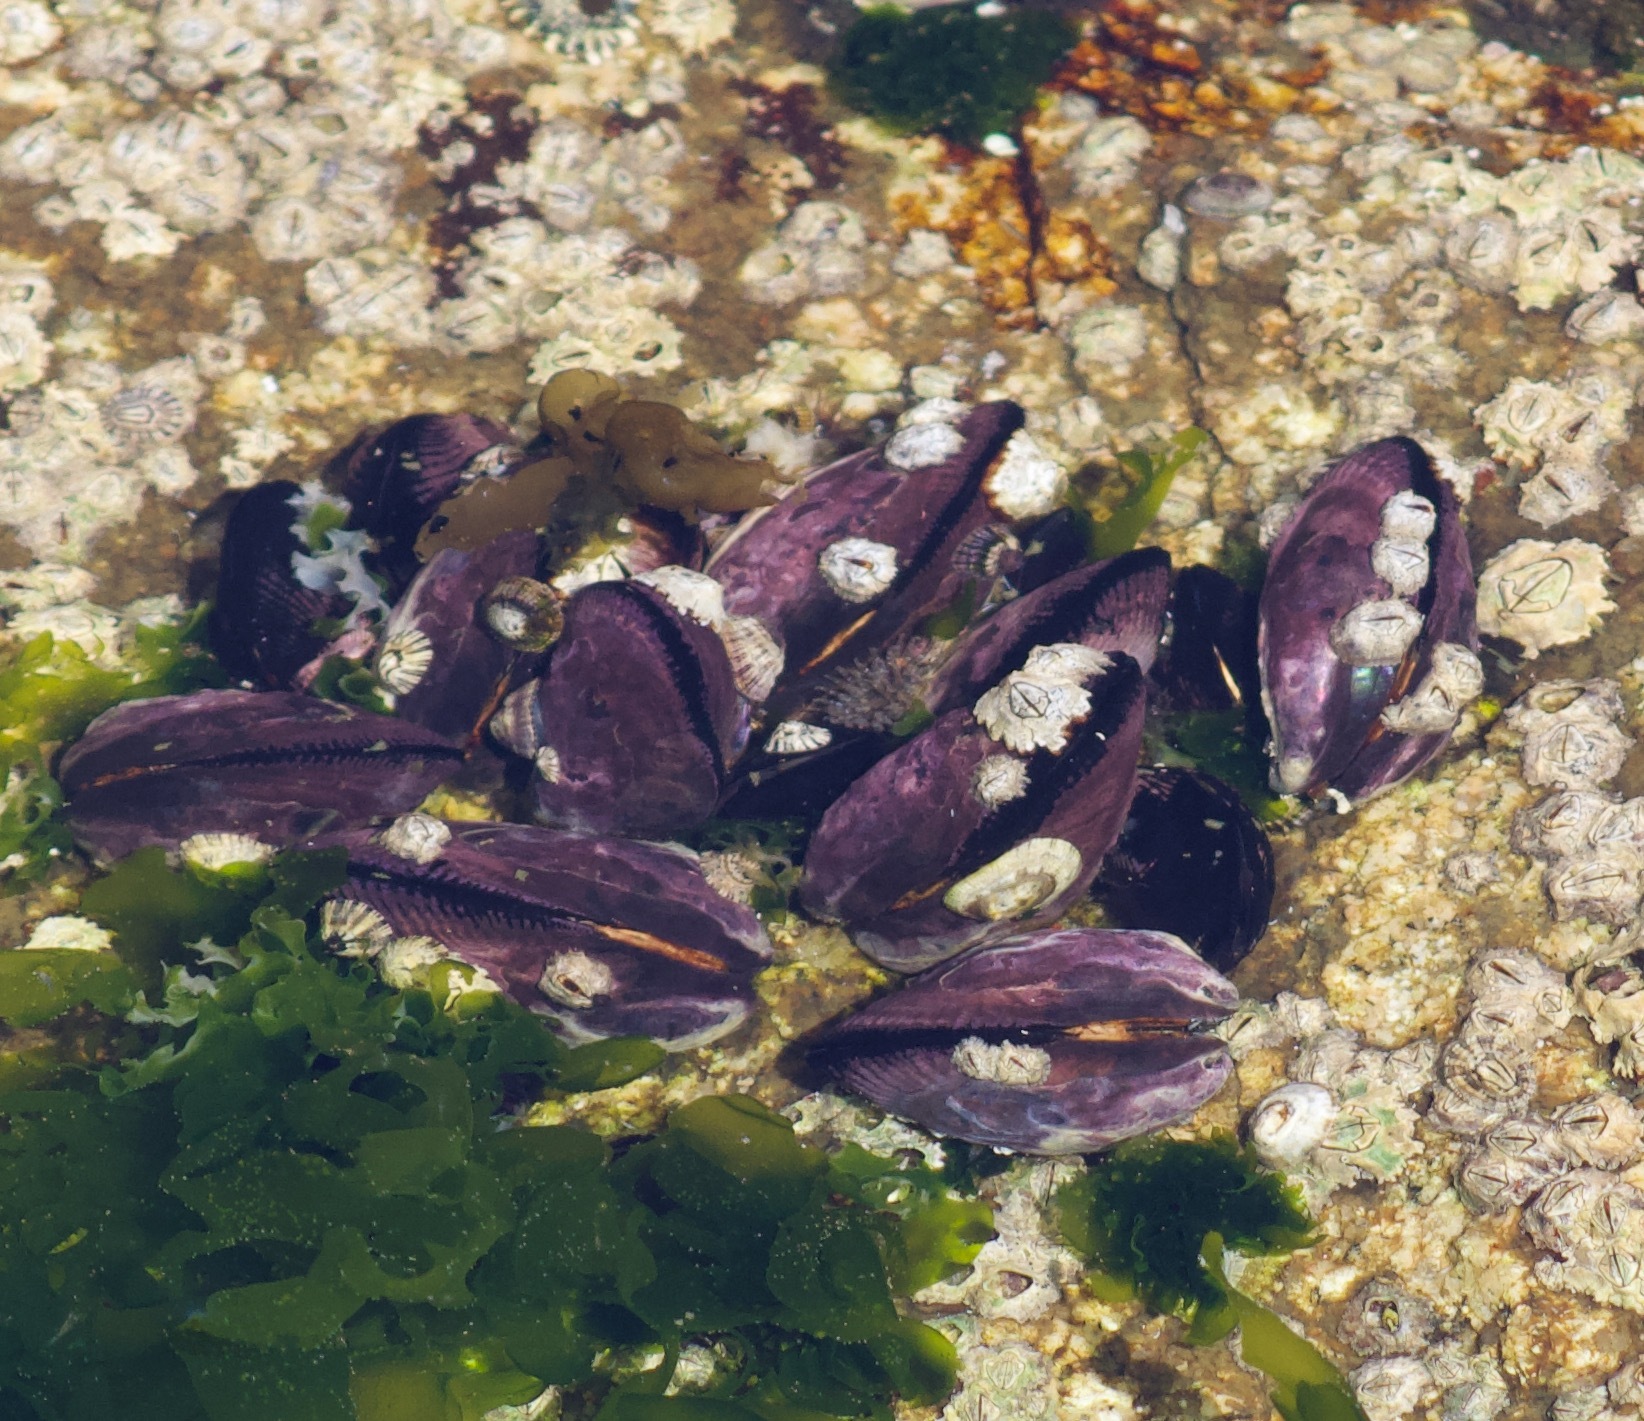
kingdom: Animalia
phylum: Mollusca
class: Bivalvia
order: Mytilida
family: Mytilidae
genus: Perumytilus
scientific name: Perumytilus purpuratus
